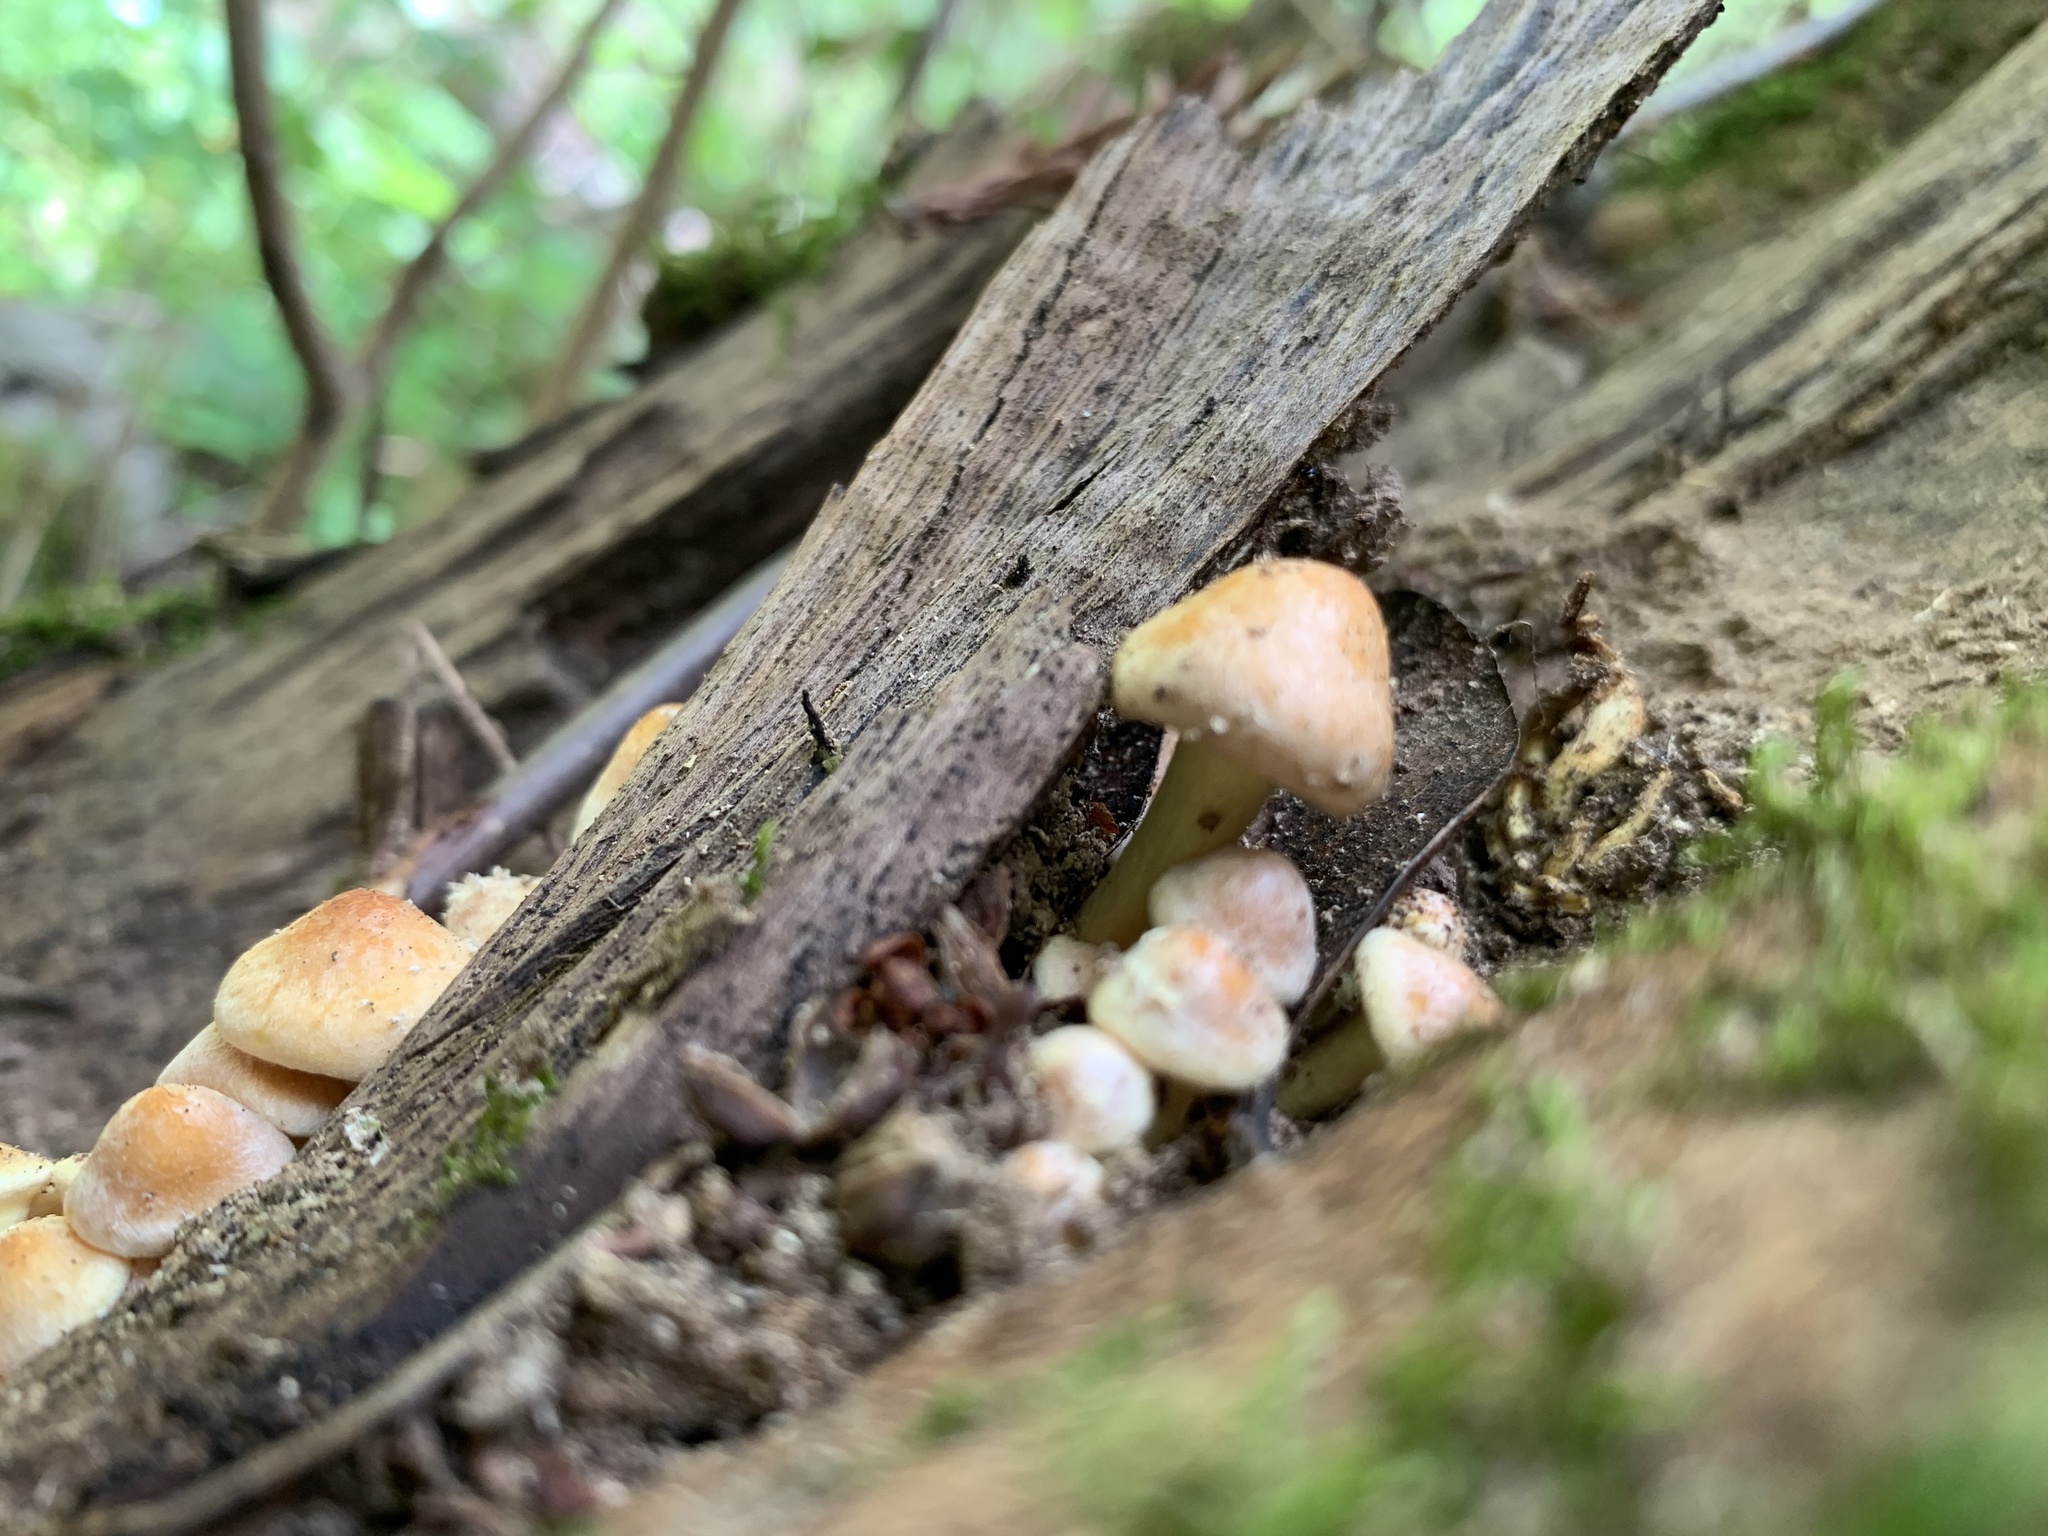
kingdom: Fungi
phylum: Basidiomycota
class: Agaricomycetes
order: Agaricales
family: Strophariaceae
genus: Hypholoma
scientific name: Hypholoma fasciculare
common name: Sulphur tuft
